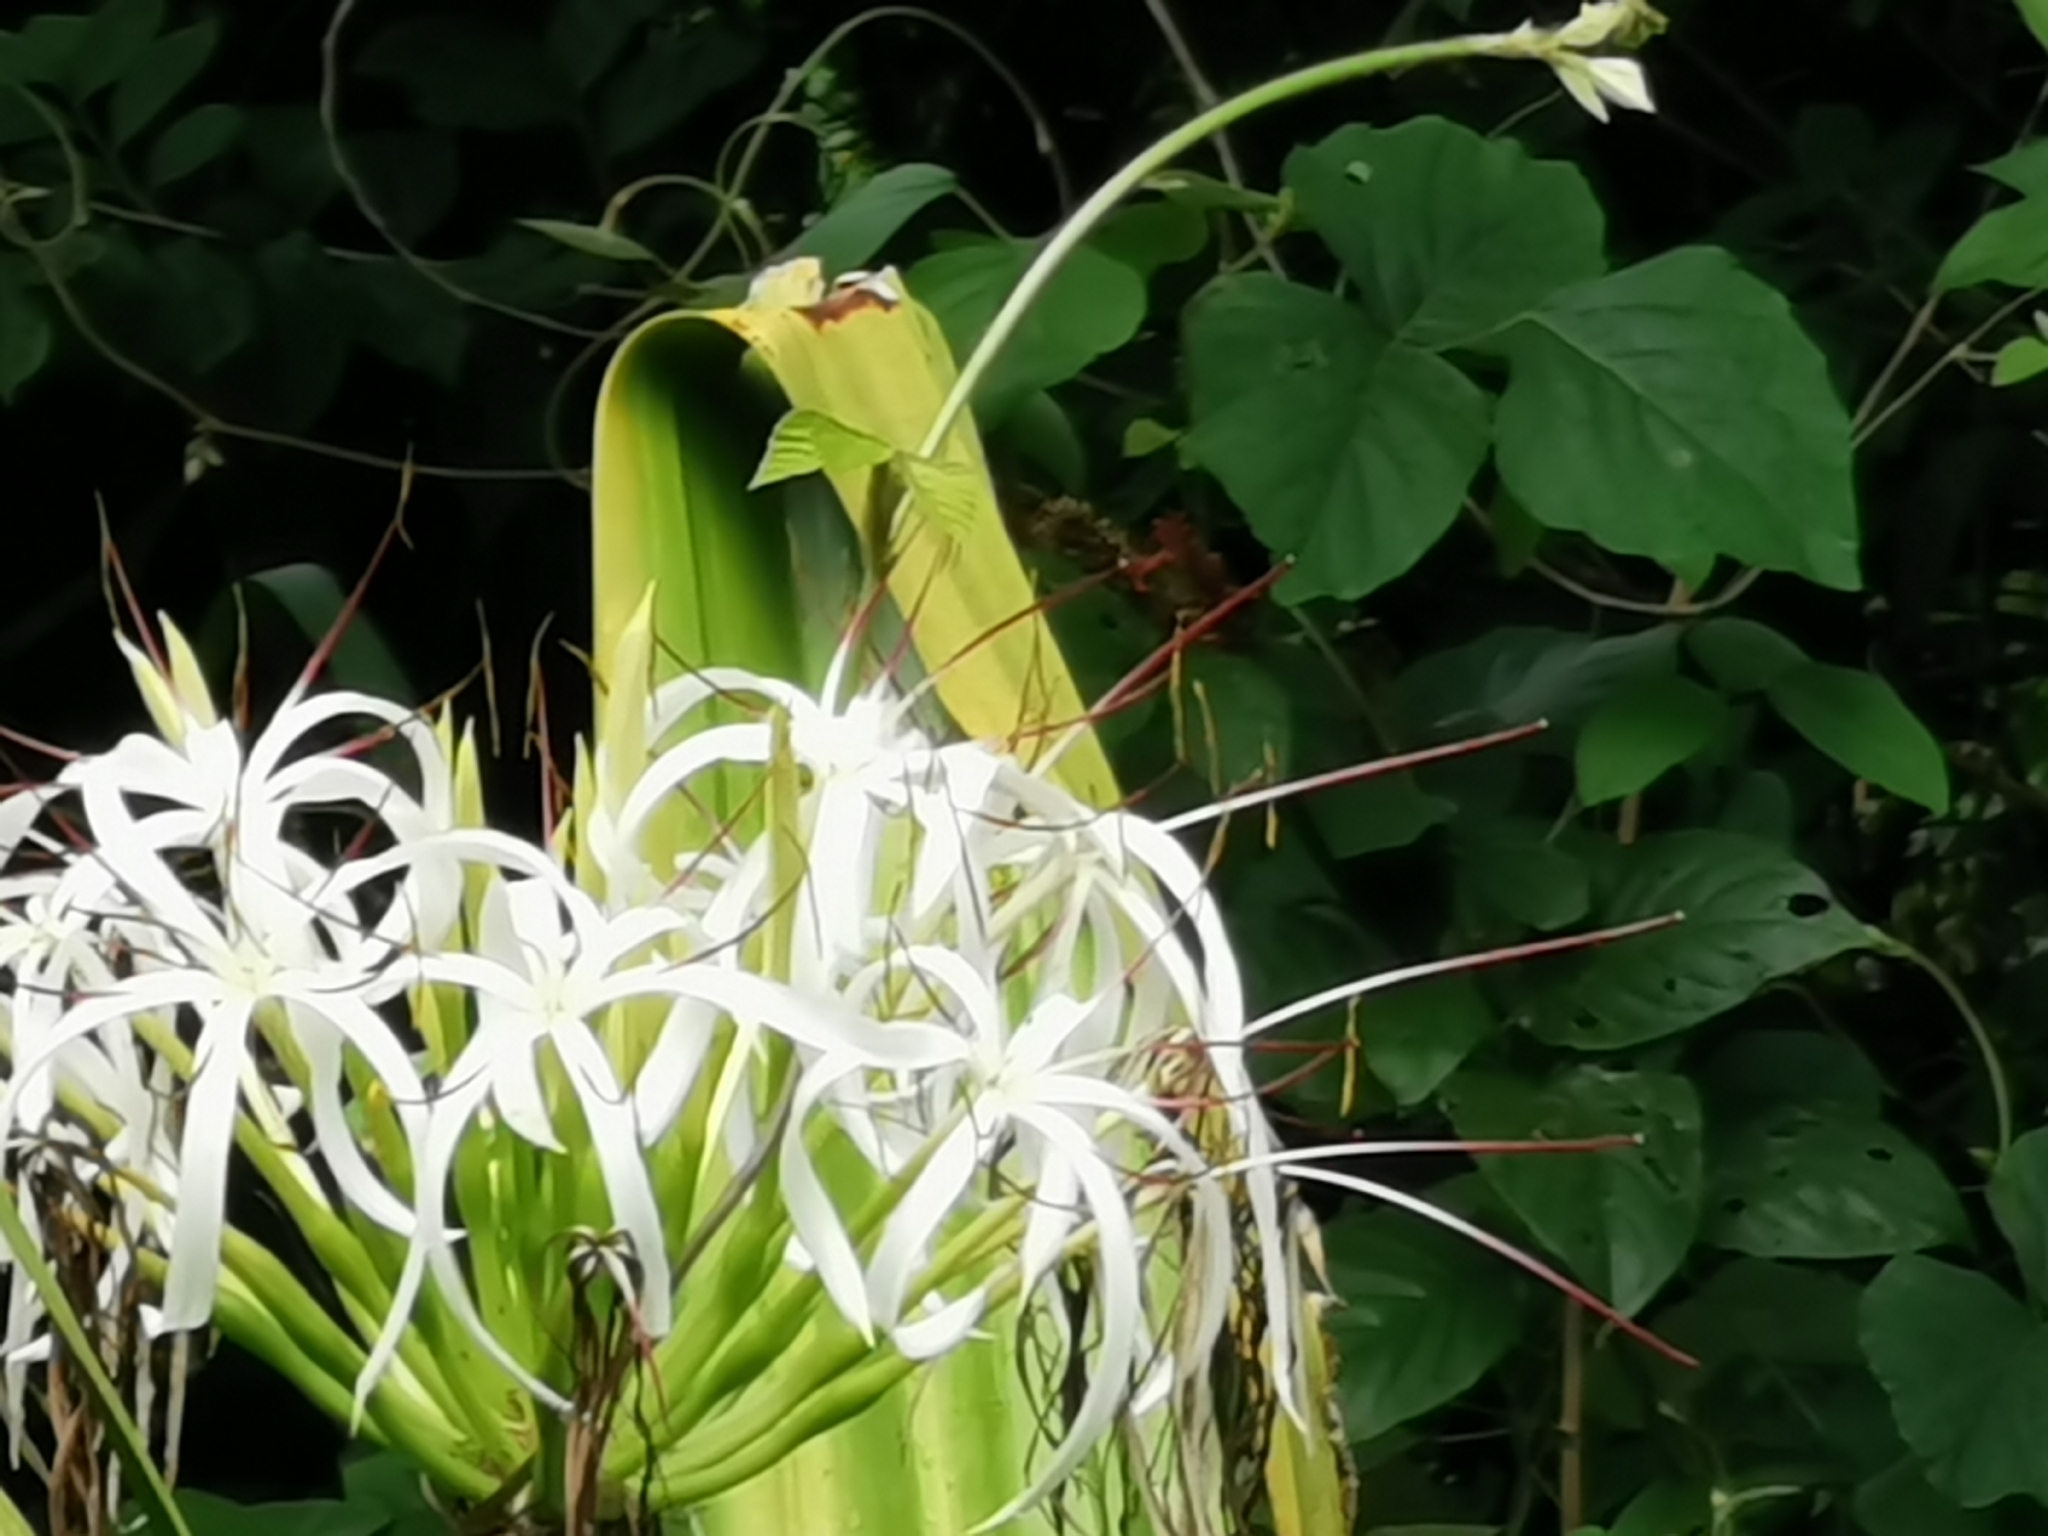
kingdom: Plantae
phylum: Tracheophyta
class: Liliopsida
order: Asparagales
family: Amaryllidaceae
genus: Crinum
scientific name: Crinum asiaticum
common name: Poisonbulb
